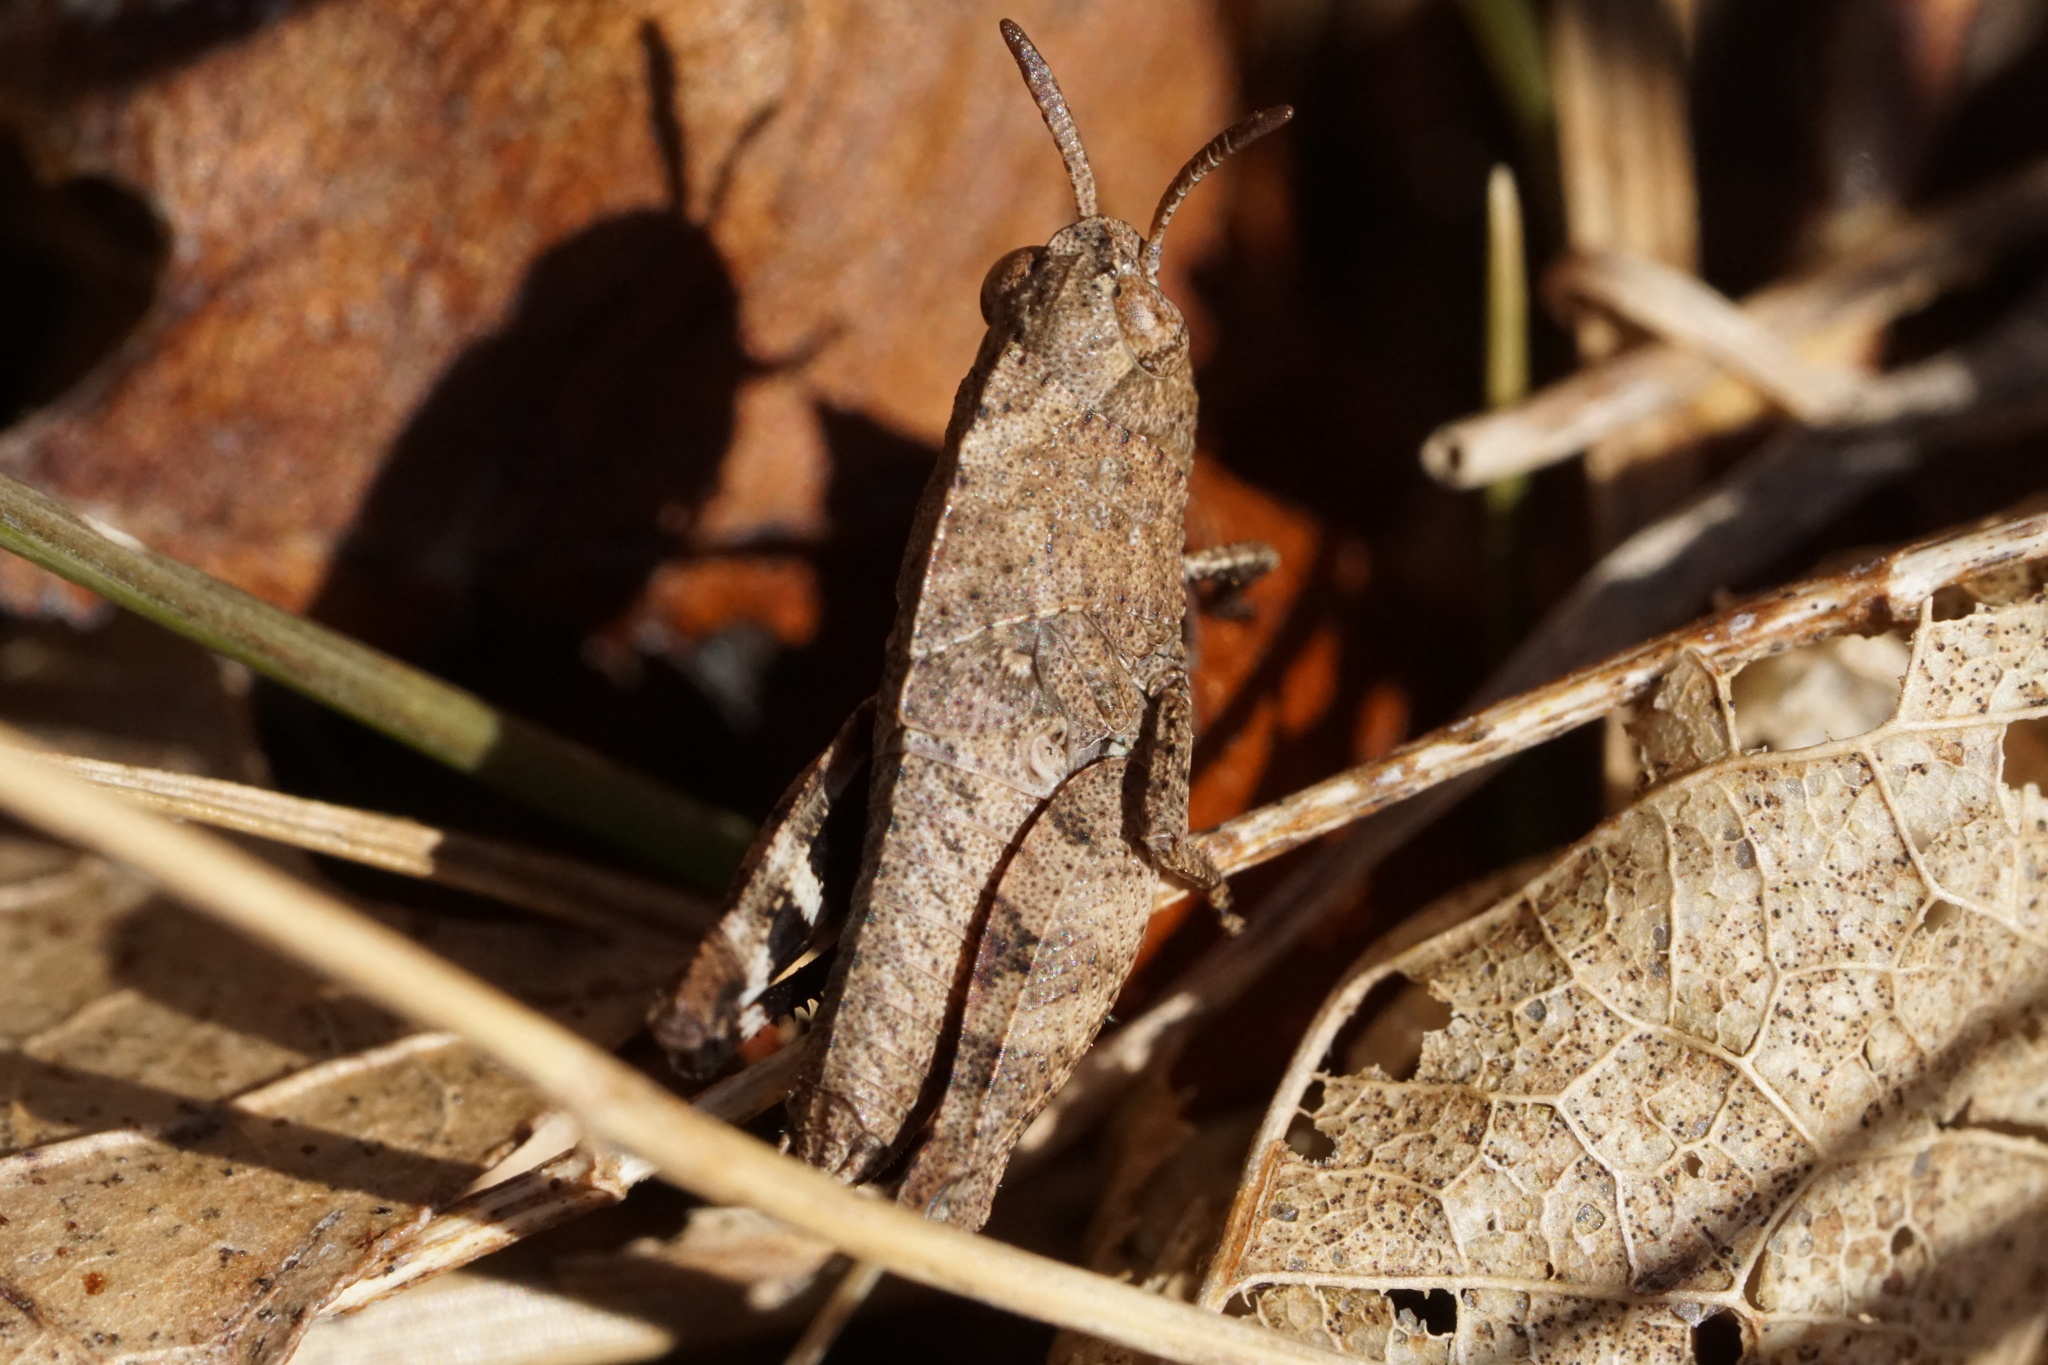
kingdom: Animalia
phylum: Arthropoda
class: Insecta
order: Orthoptera
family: Acrididae
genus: Arphia
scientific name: Arphia sulphurea
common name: Spring yellow-winged locust
